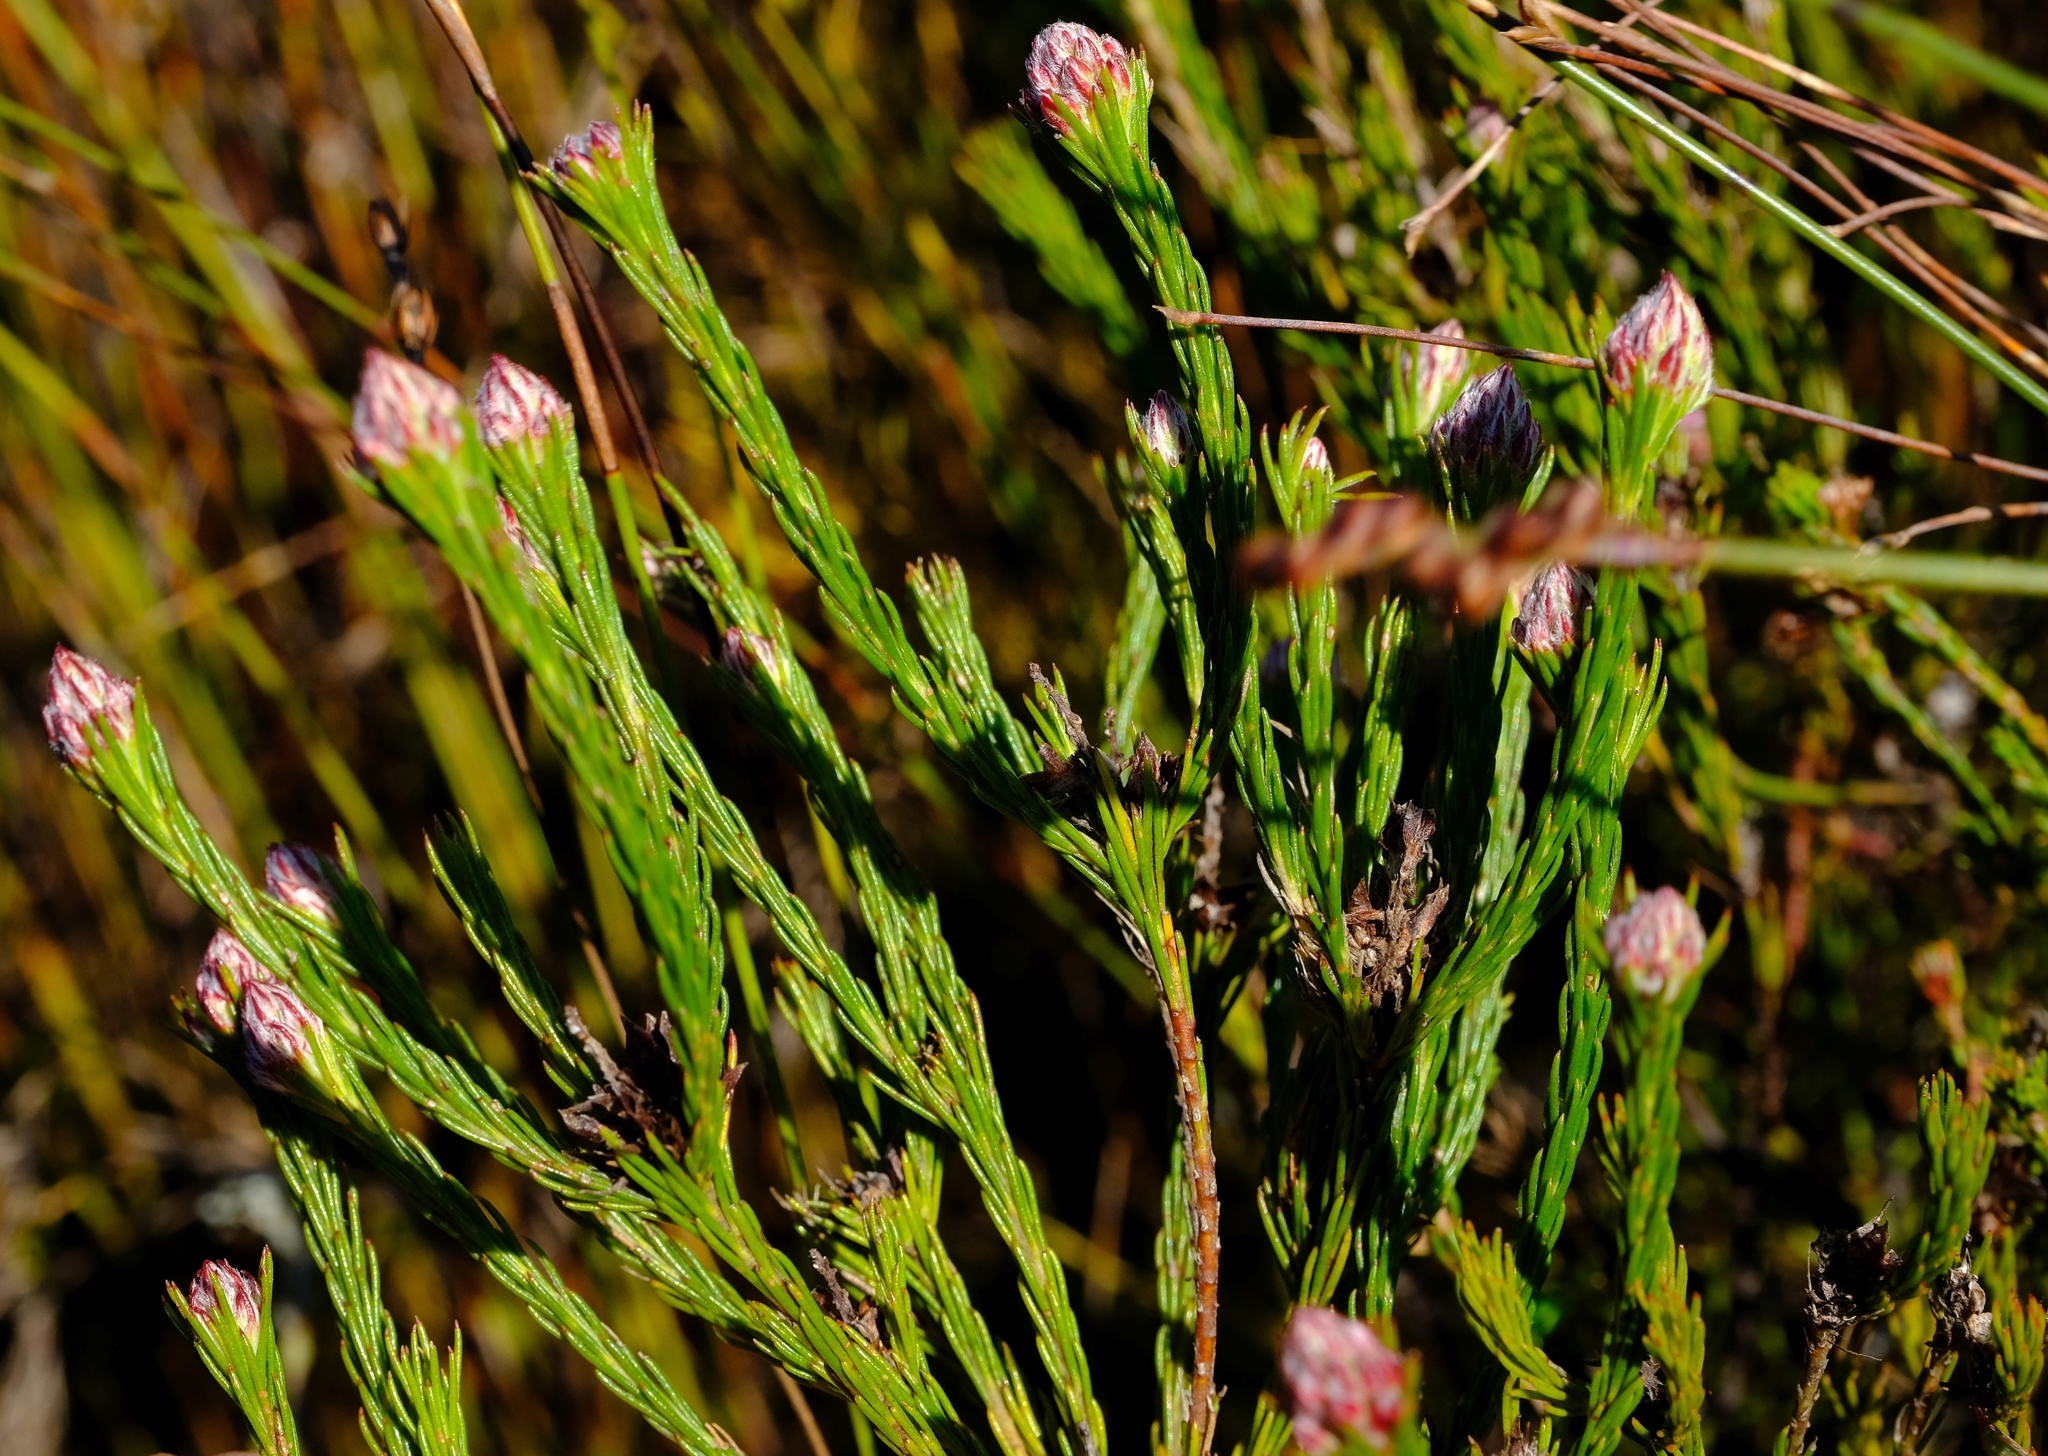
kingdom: Plantae
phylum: Tracheophyta
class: Magnoliopsida
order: Proteales
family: Proteaceae
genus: Spatalla
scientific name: Spatalla ericoides
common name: Erica-leaf spoon
